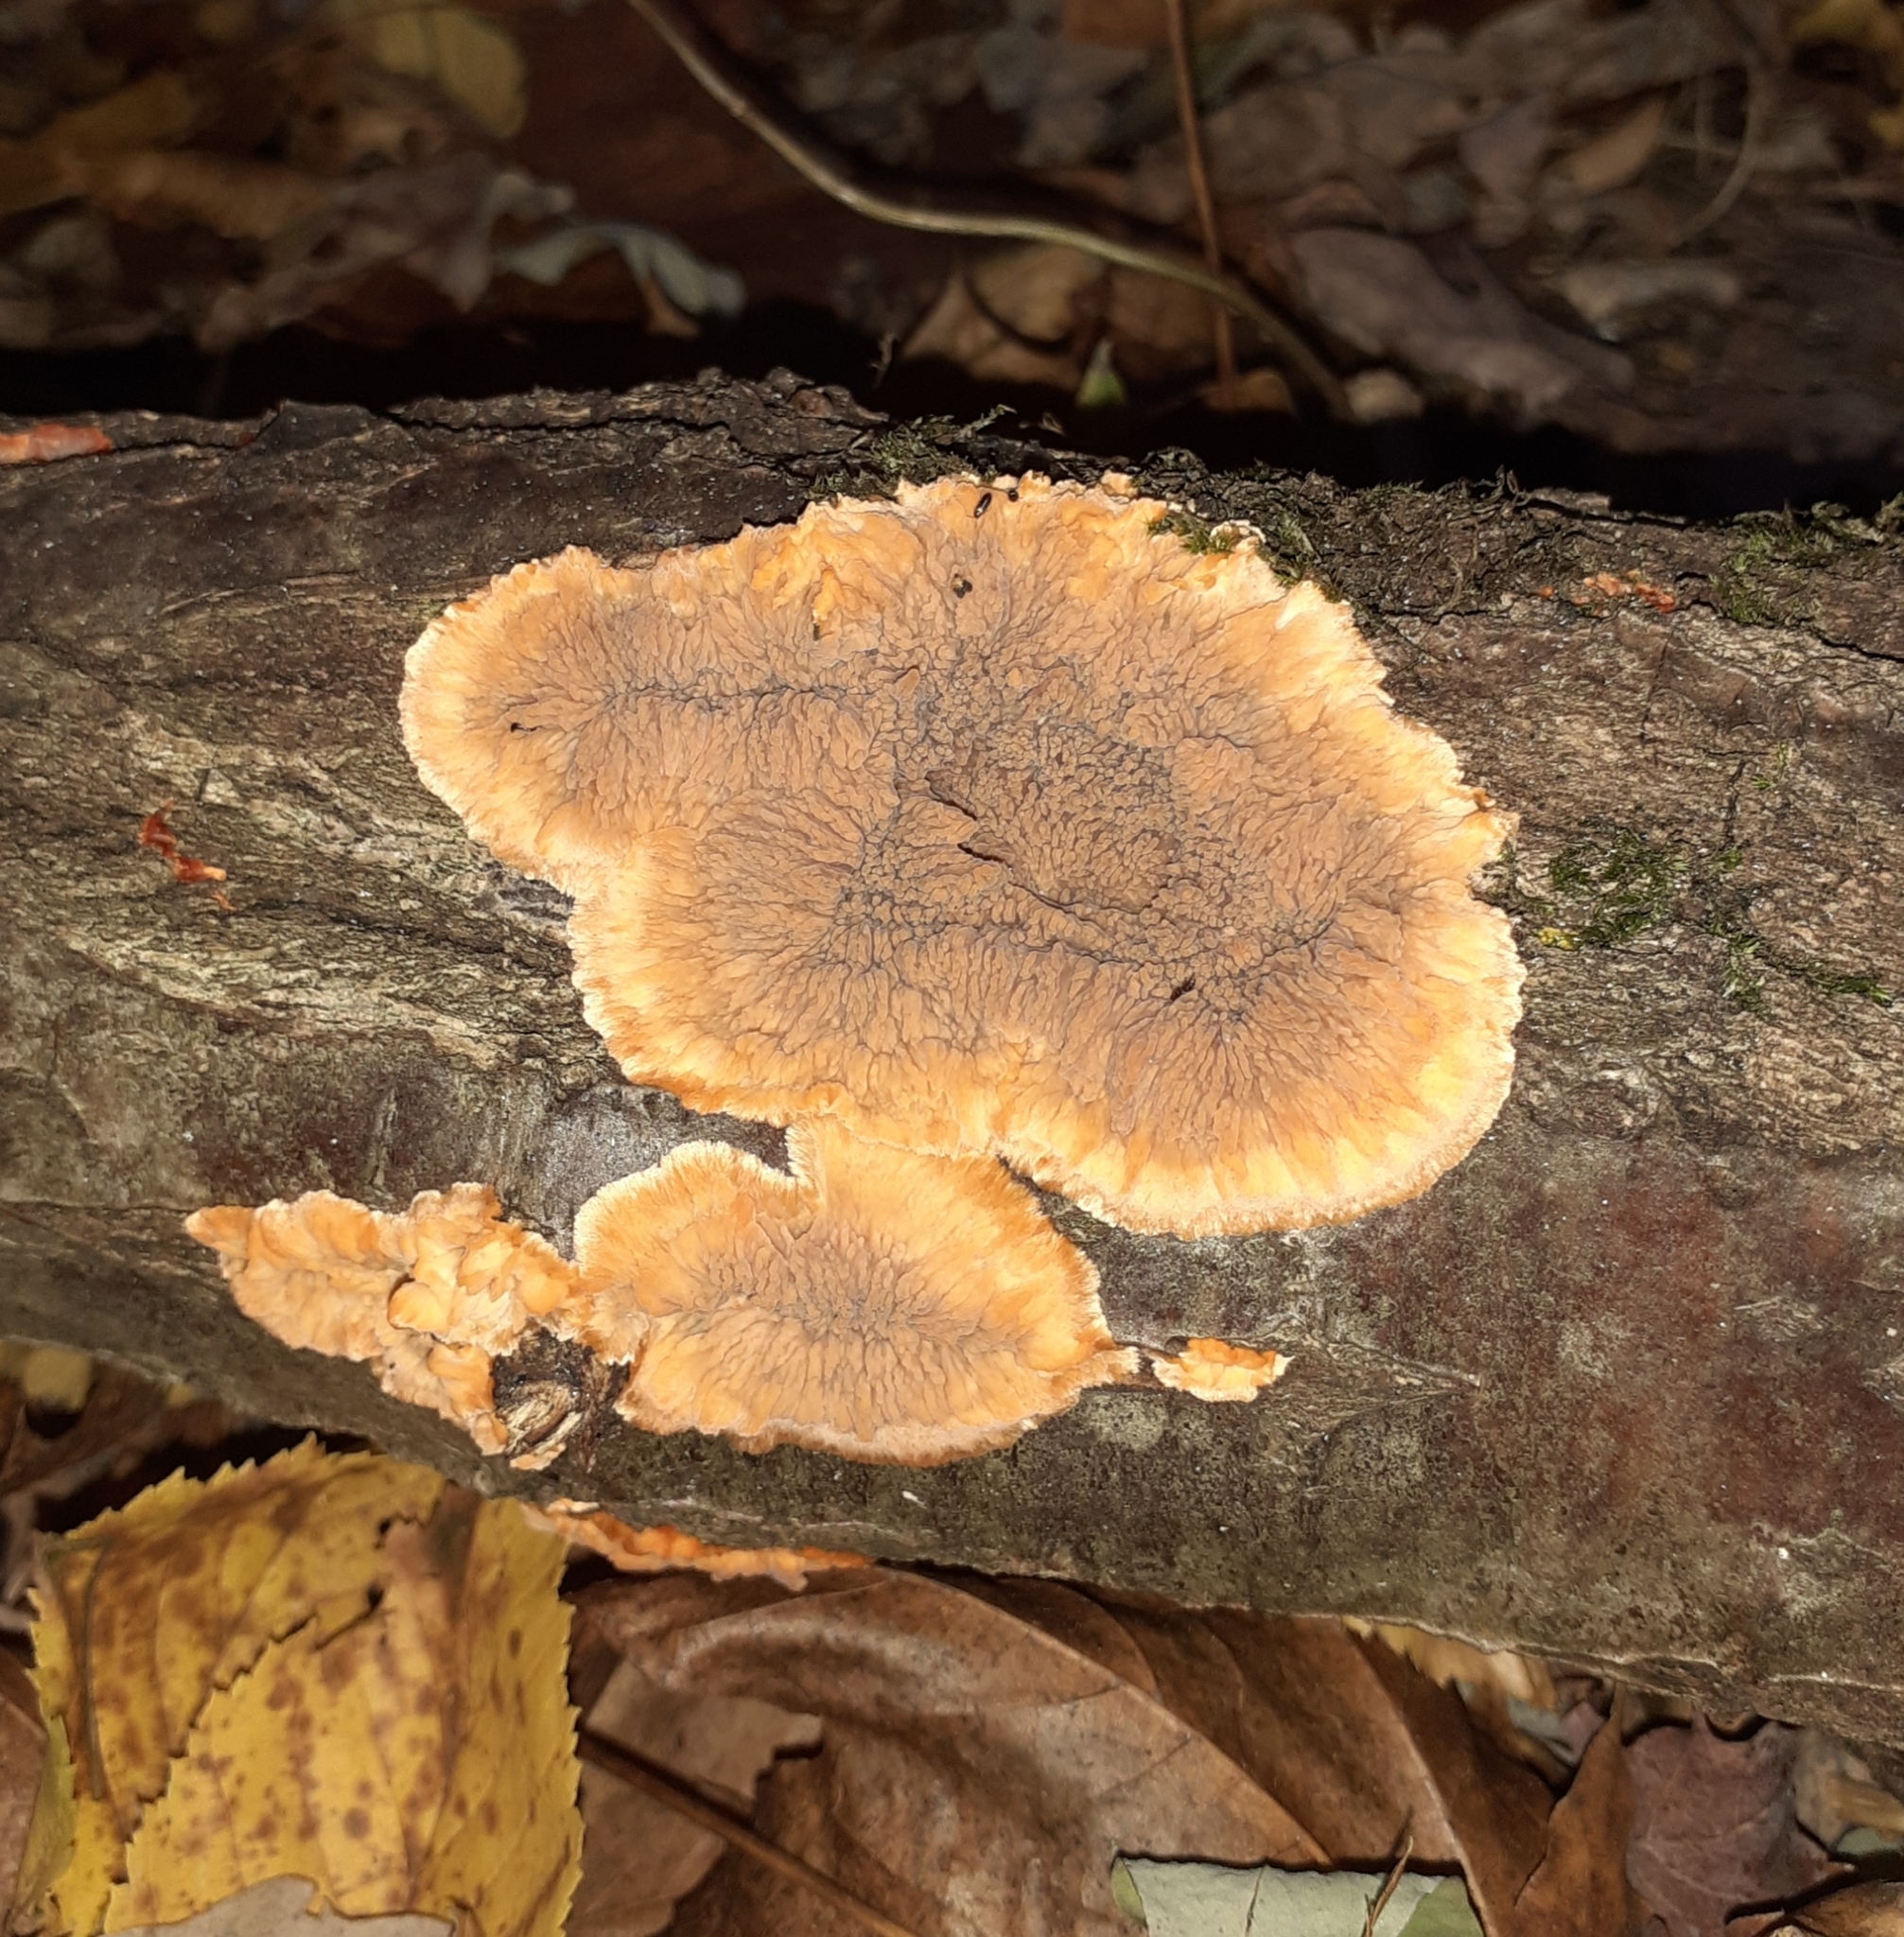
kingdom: Fungi
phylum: Basidiomycota
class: Agaricomycetes
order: Polyporales
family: Meruliaceae
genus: Phlebia
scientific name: Phlebia radiata
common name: Wrinkled crust
